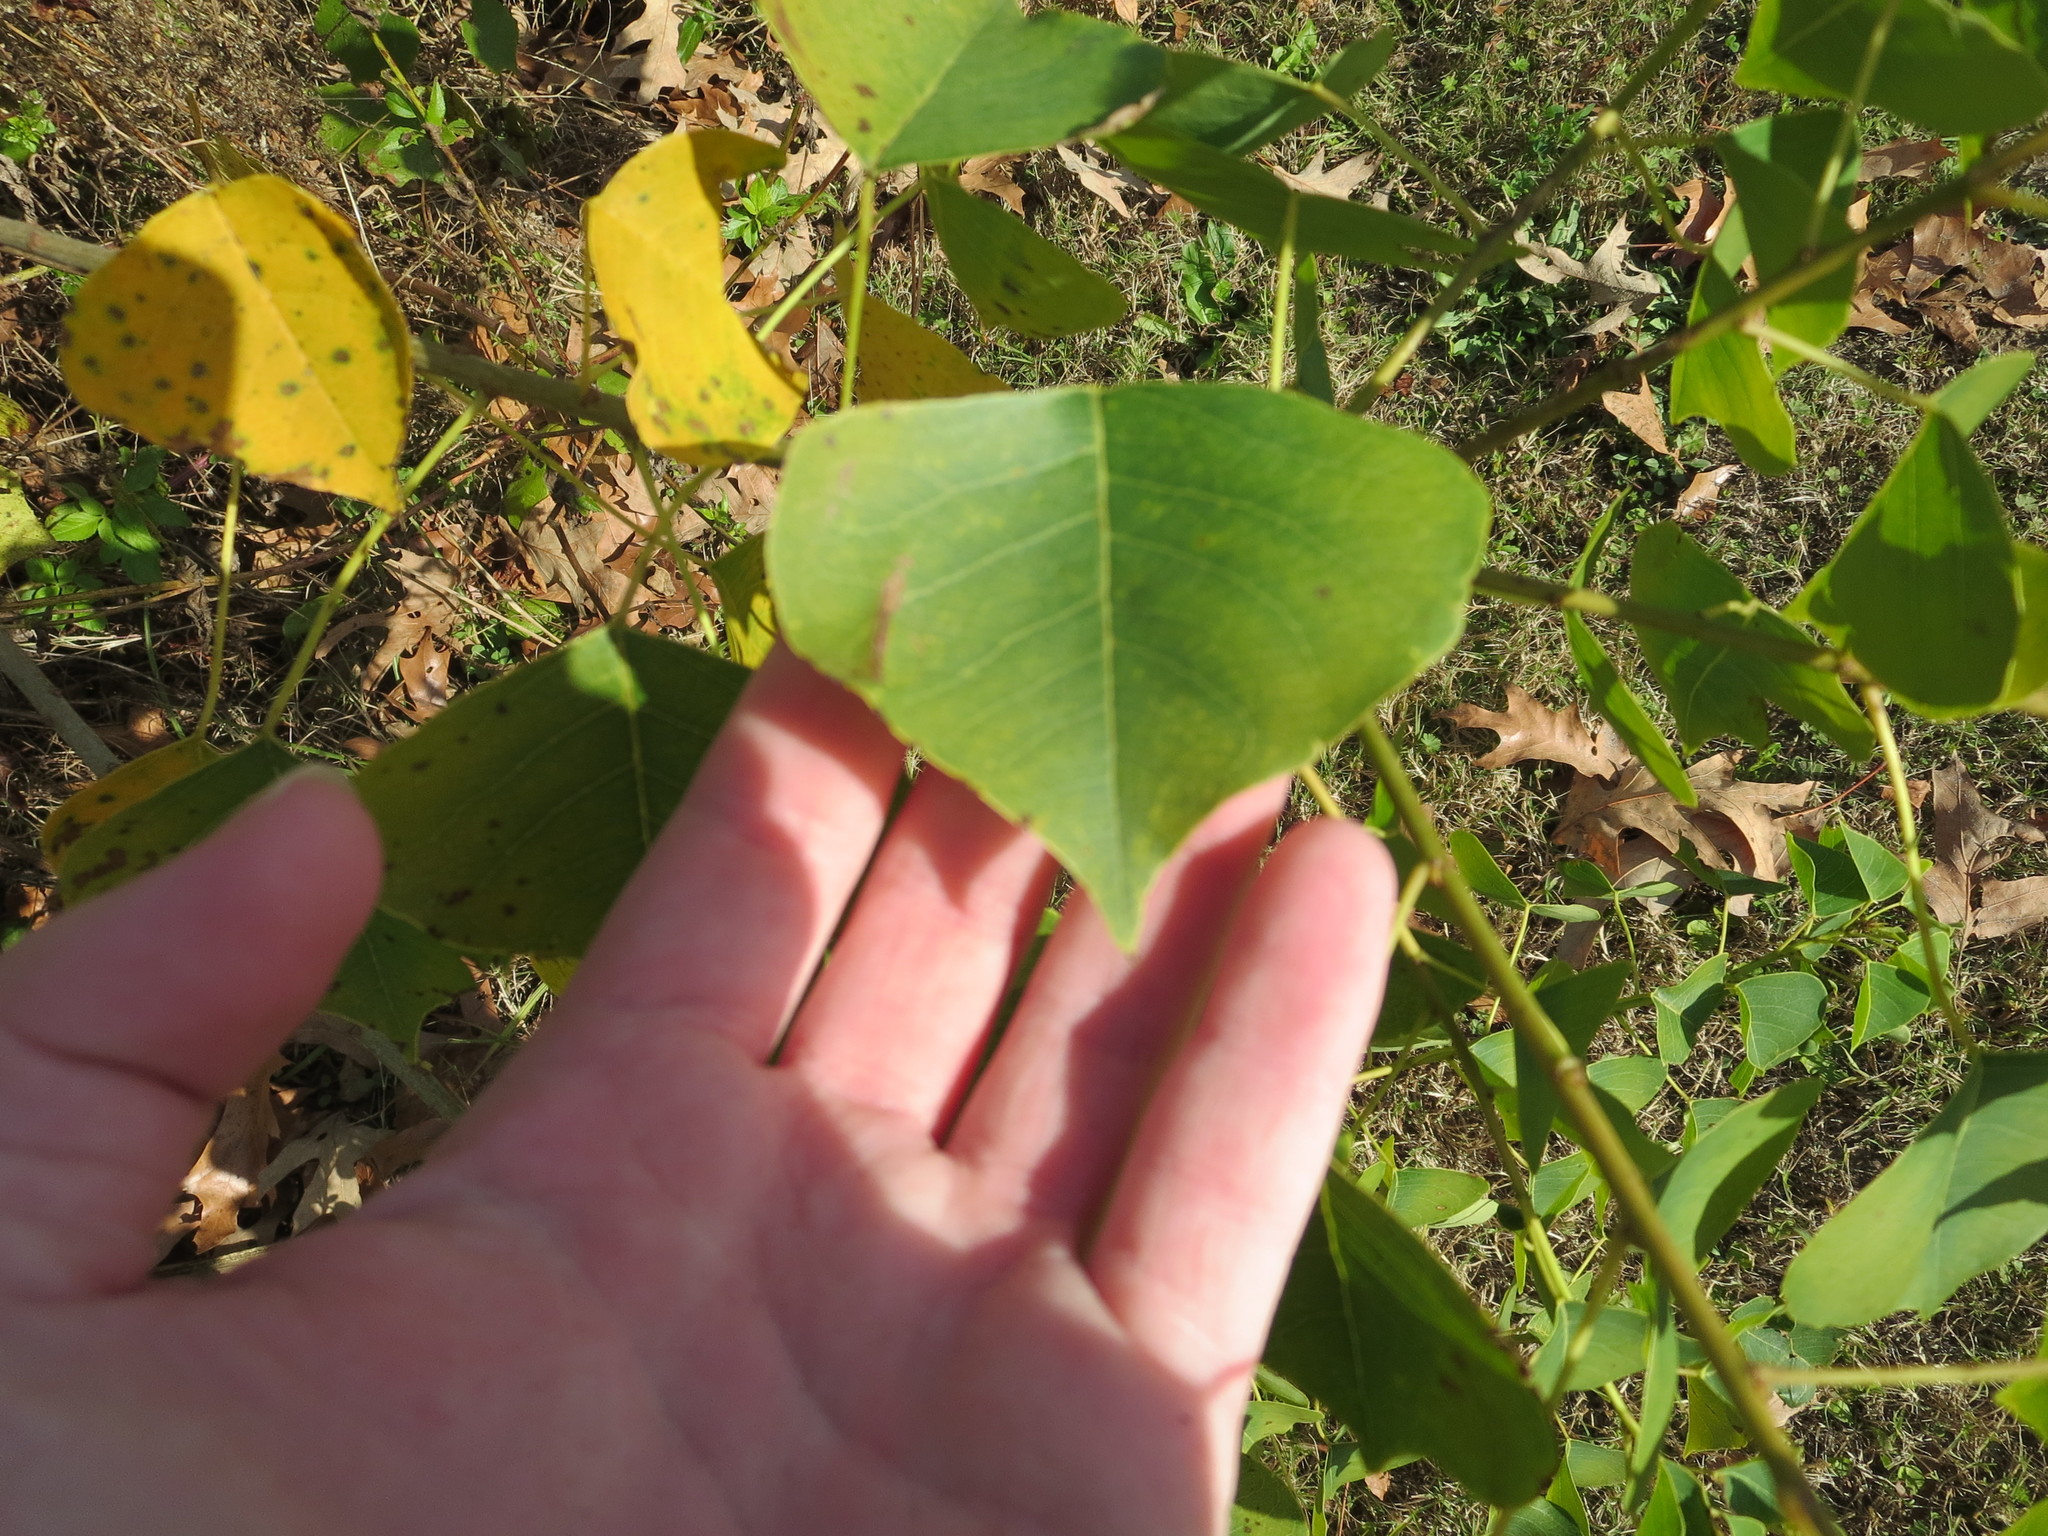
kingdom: Plantae
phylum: Tracheophyta
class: Magnoliopsida
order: Malpighiales
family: Euphorbiaceae
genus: Triadica
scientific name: Triadica sebifera
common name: Chinese tallow
